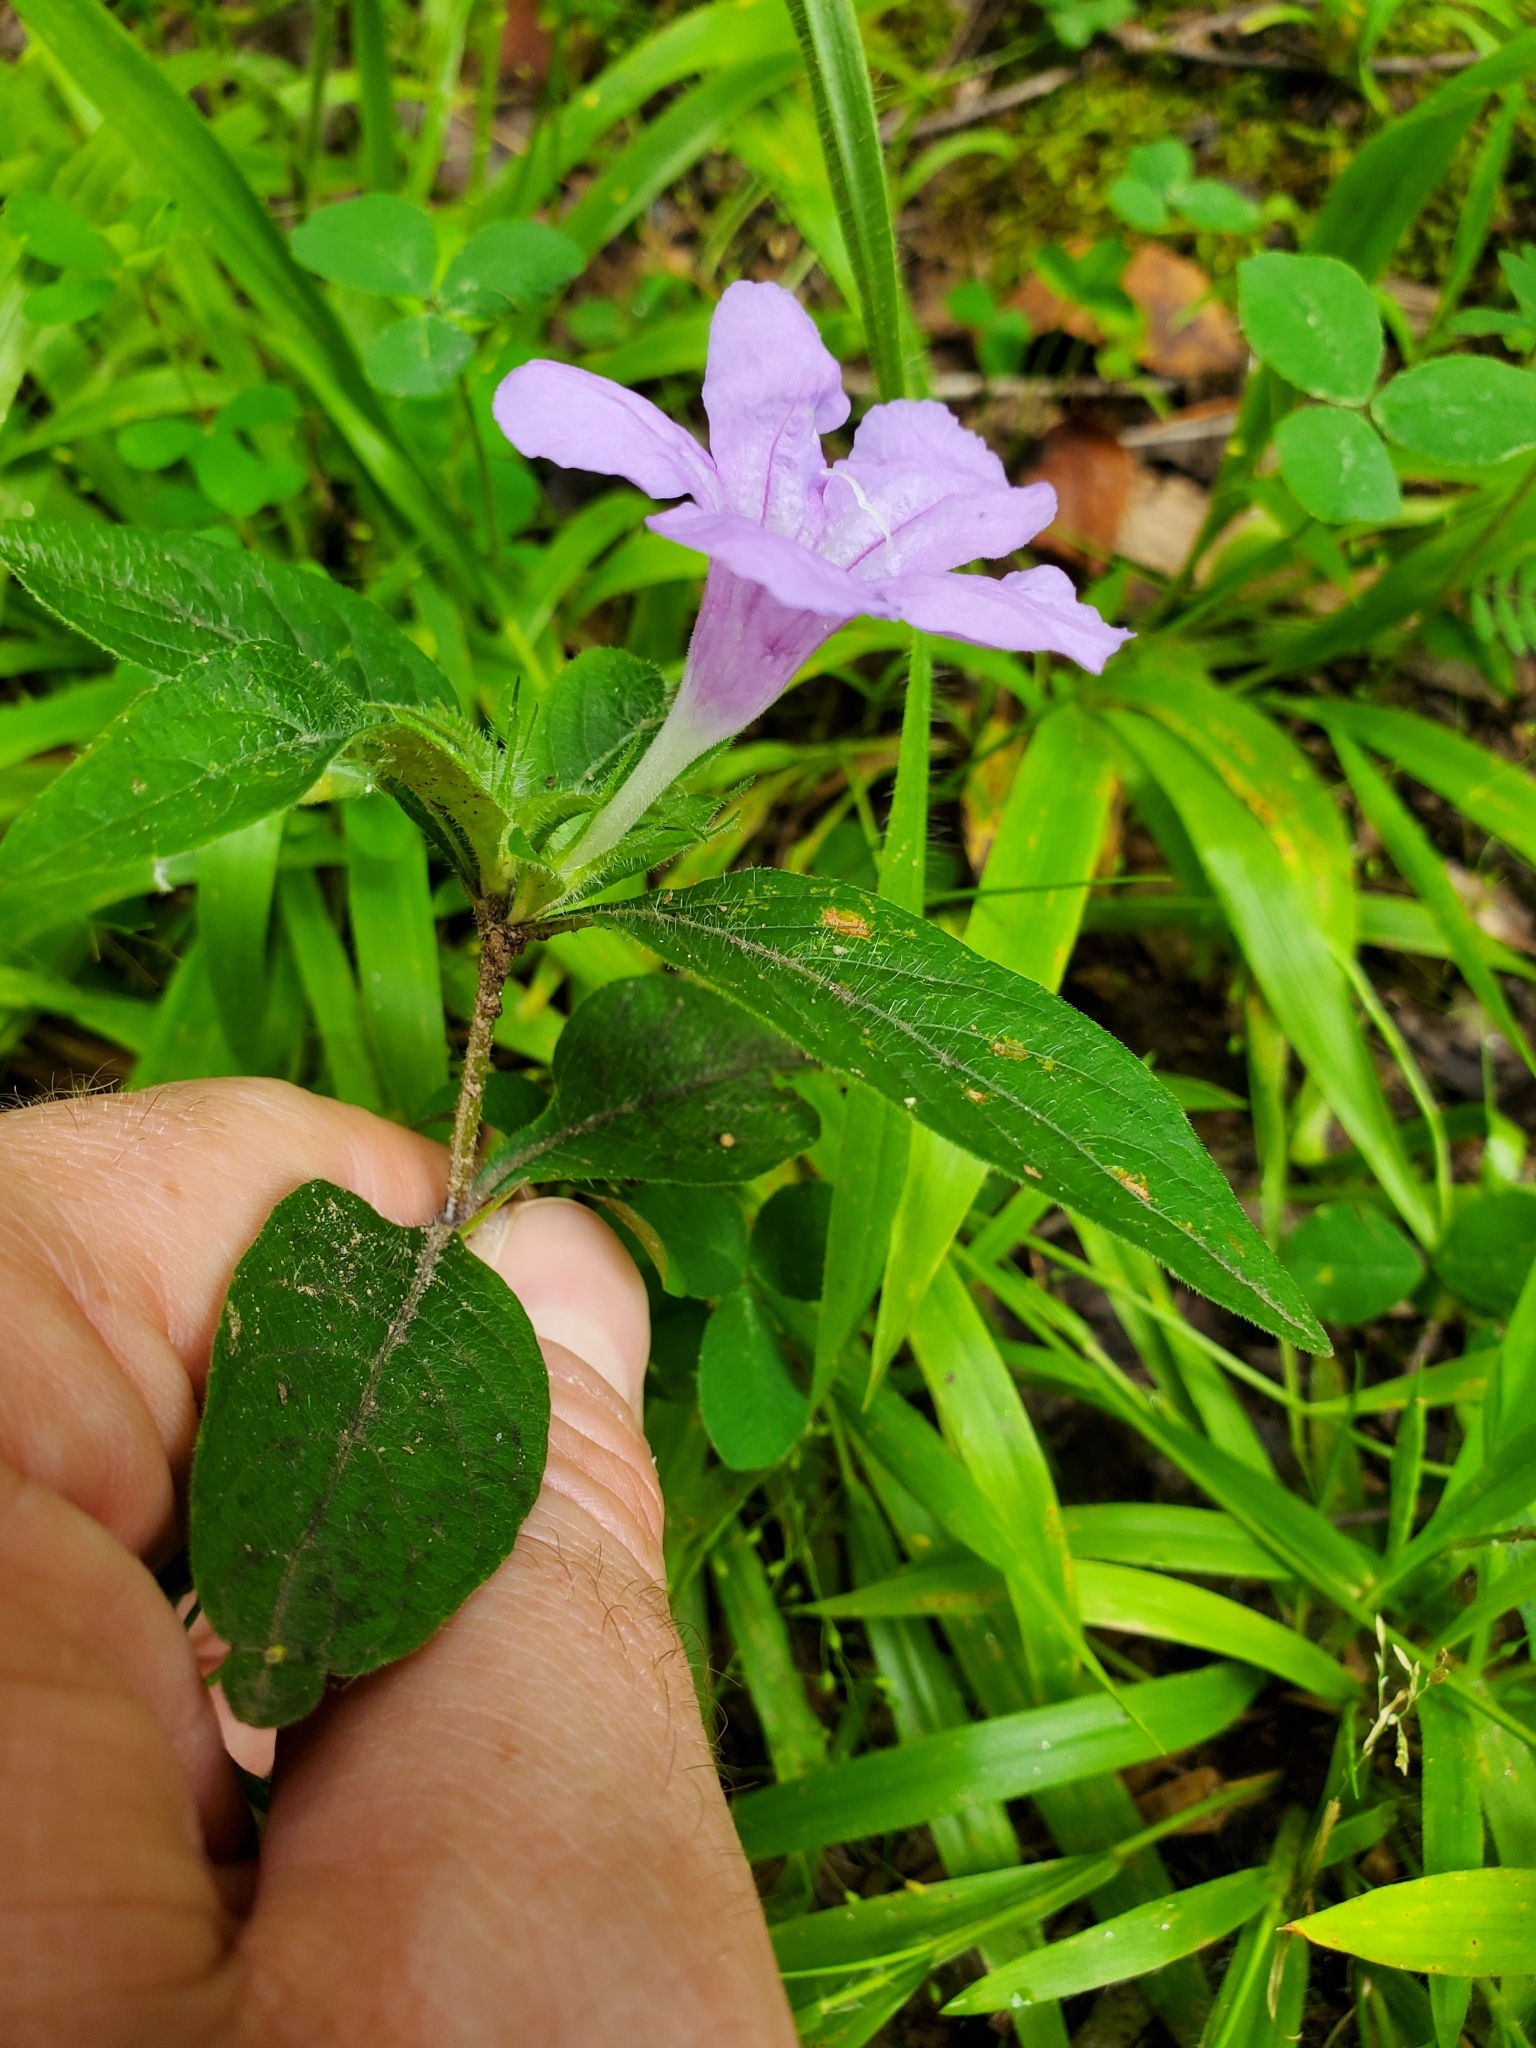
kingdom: Plantae
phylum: Tracheophyta
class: Magnoliopsida
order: Lamiales
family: Acanthaceae
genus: Ruellia
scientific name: Ruellia caroliniensis
